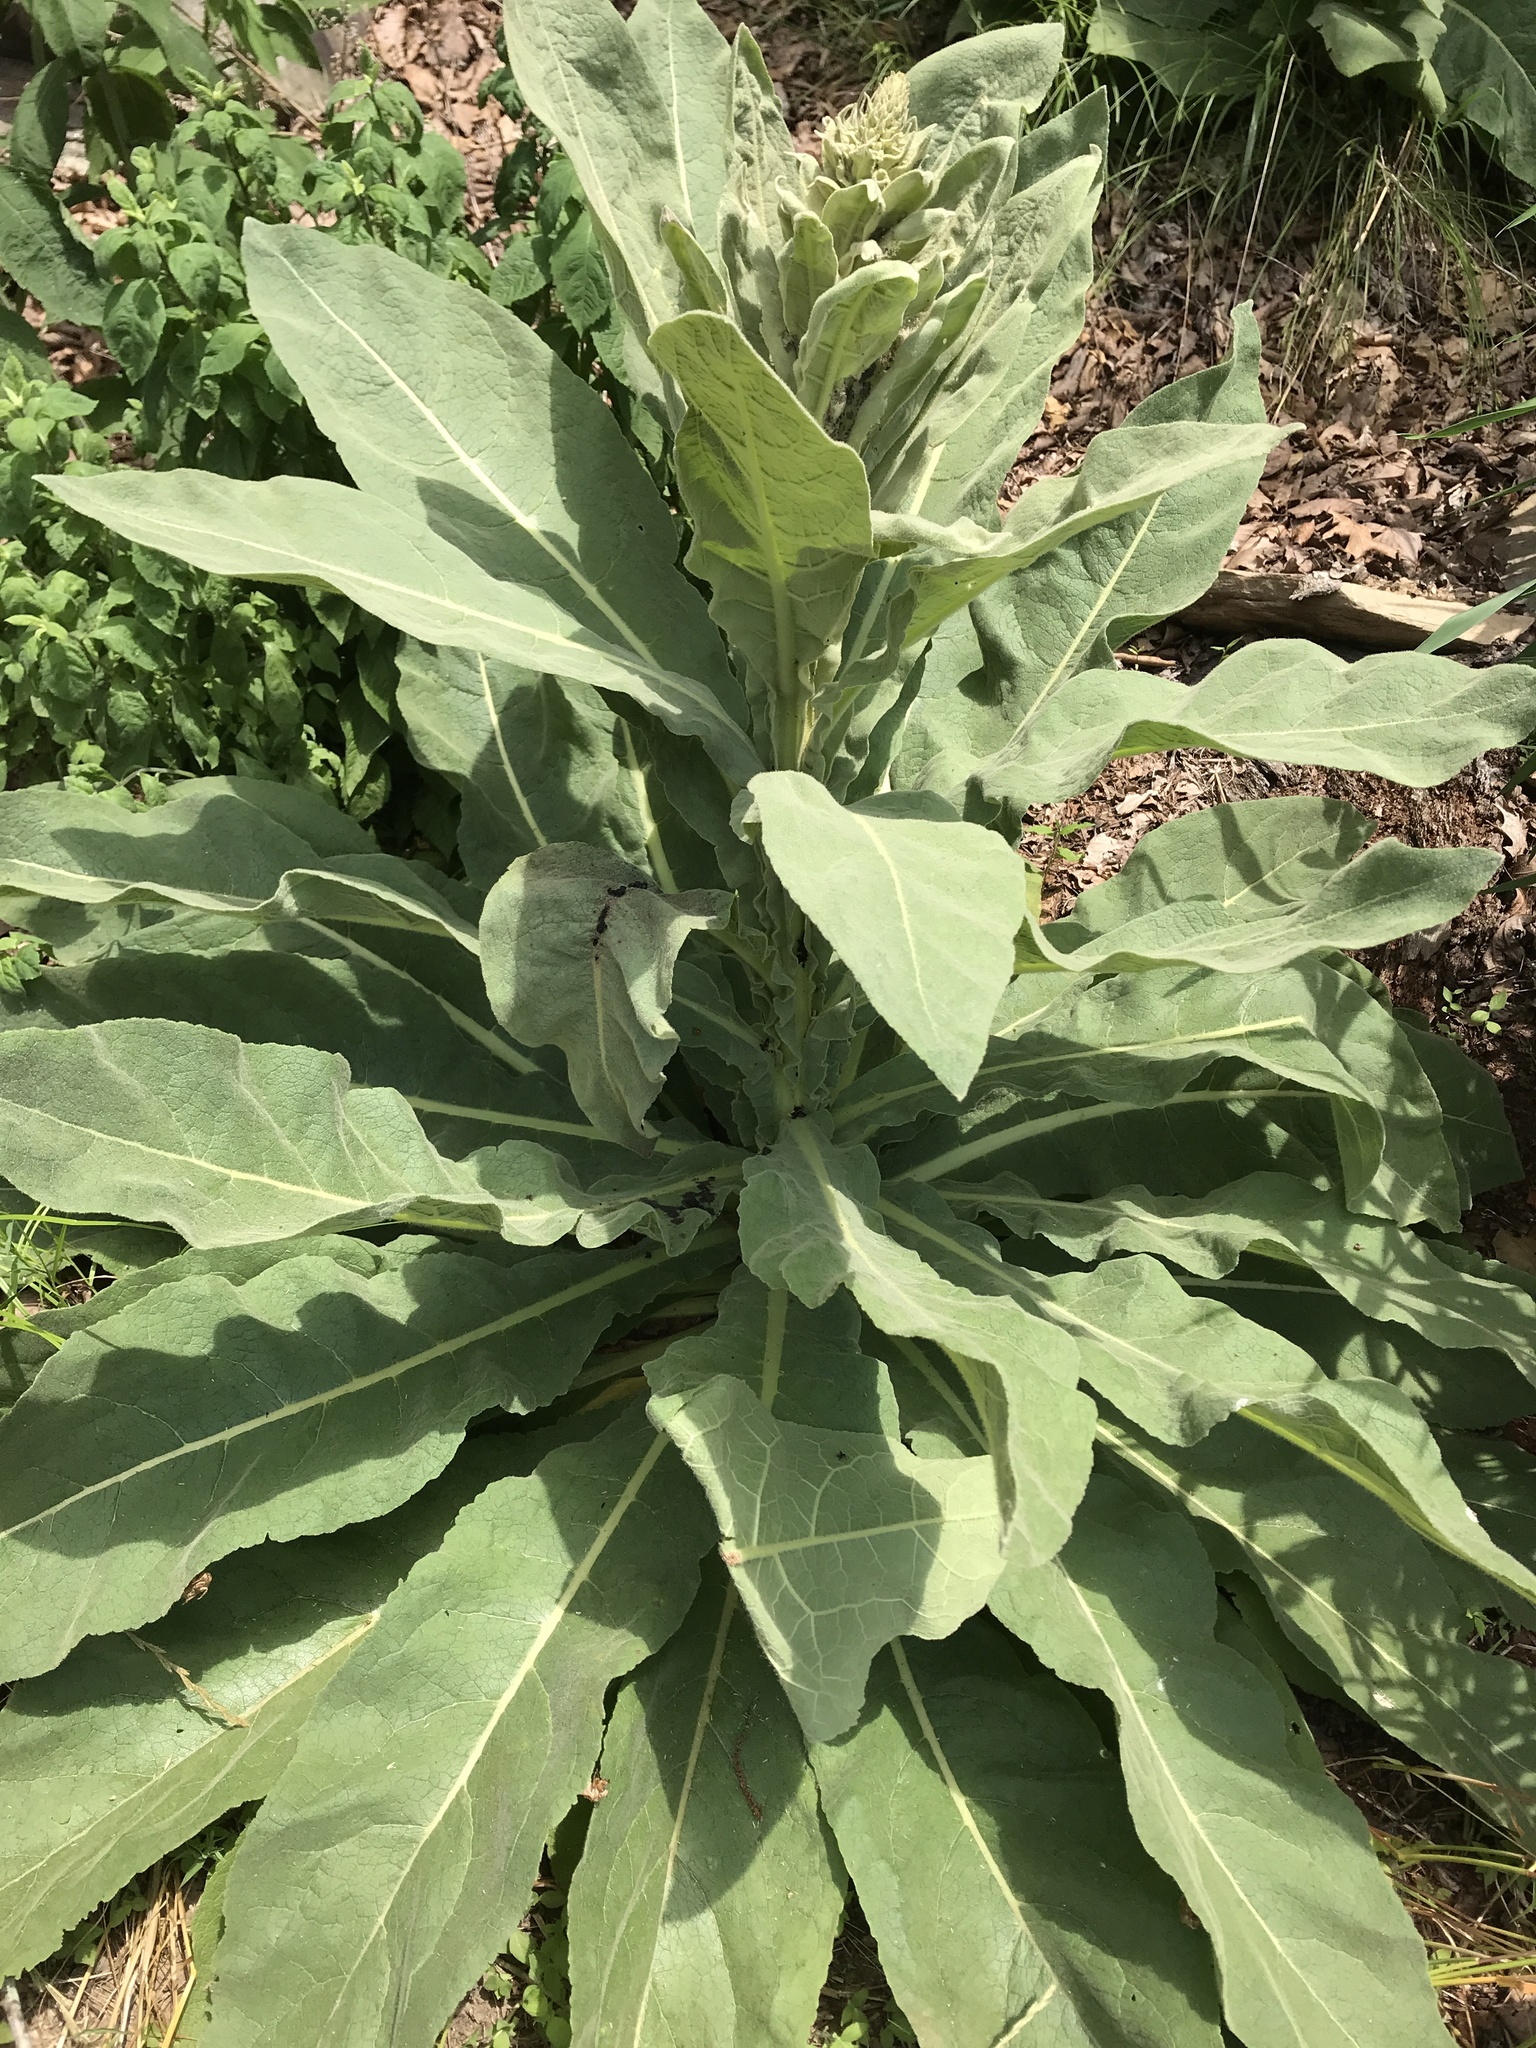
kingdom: Plantae
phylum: Tracheophyta
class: Magnoliopsida
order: Lamiales
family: Scrophulariaceae
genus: Verbascum
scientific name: Verbascum thapsus
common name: Common mullein
